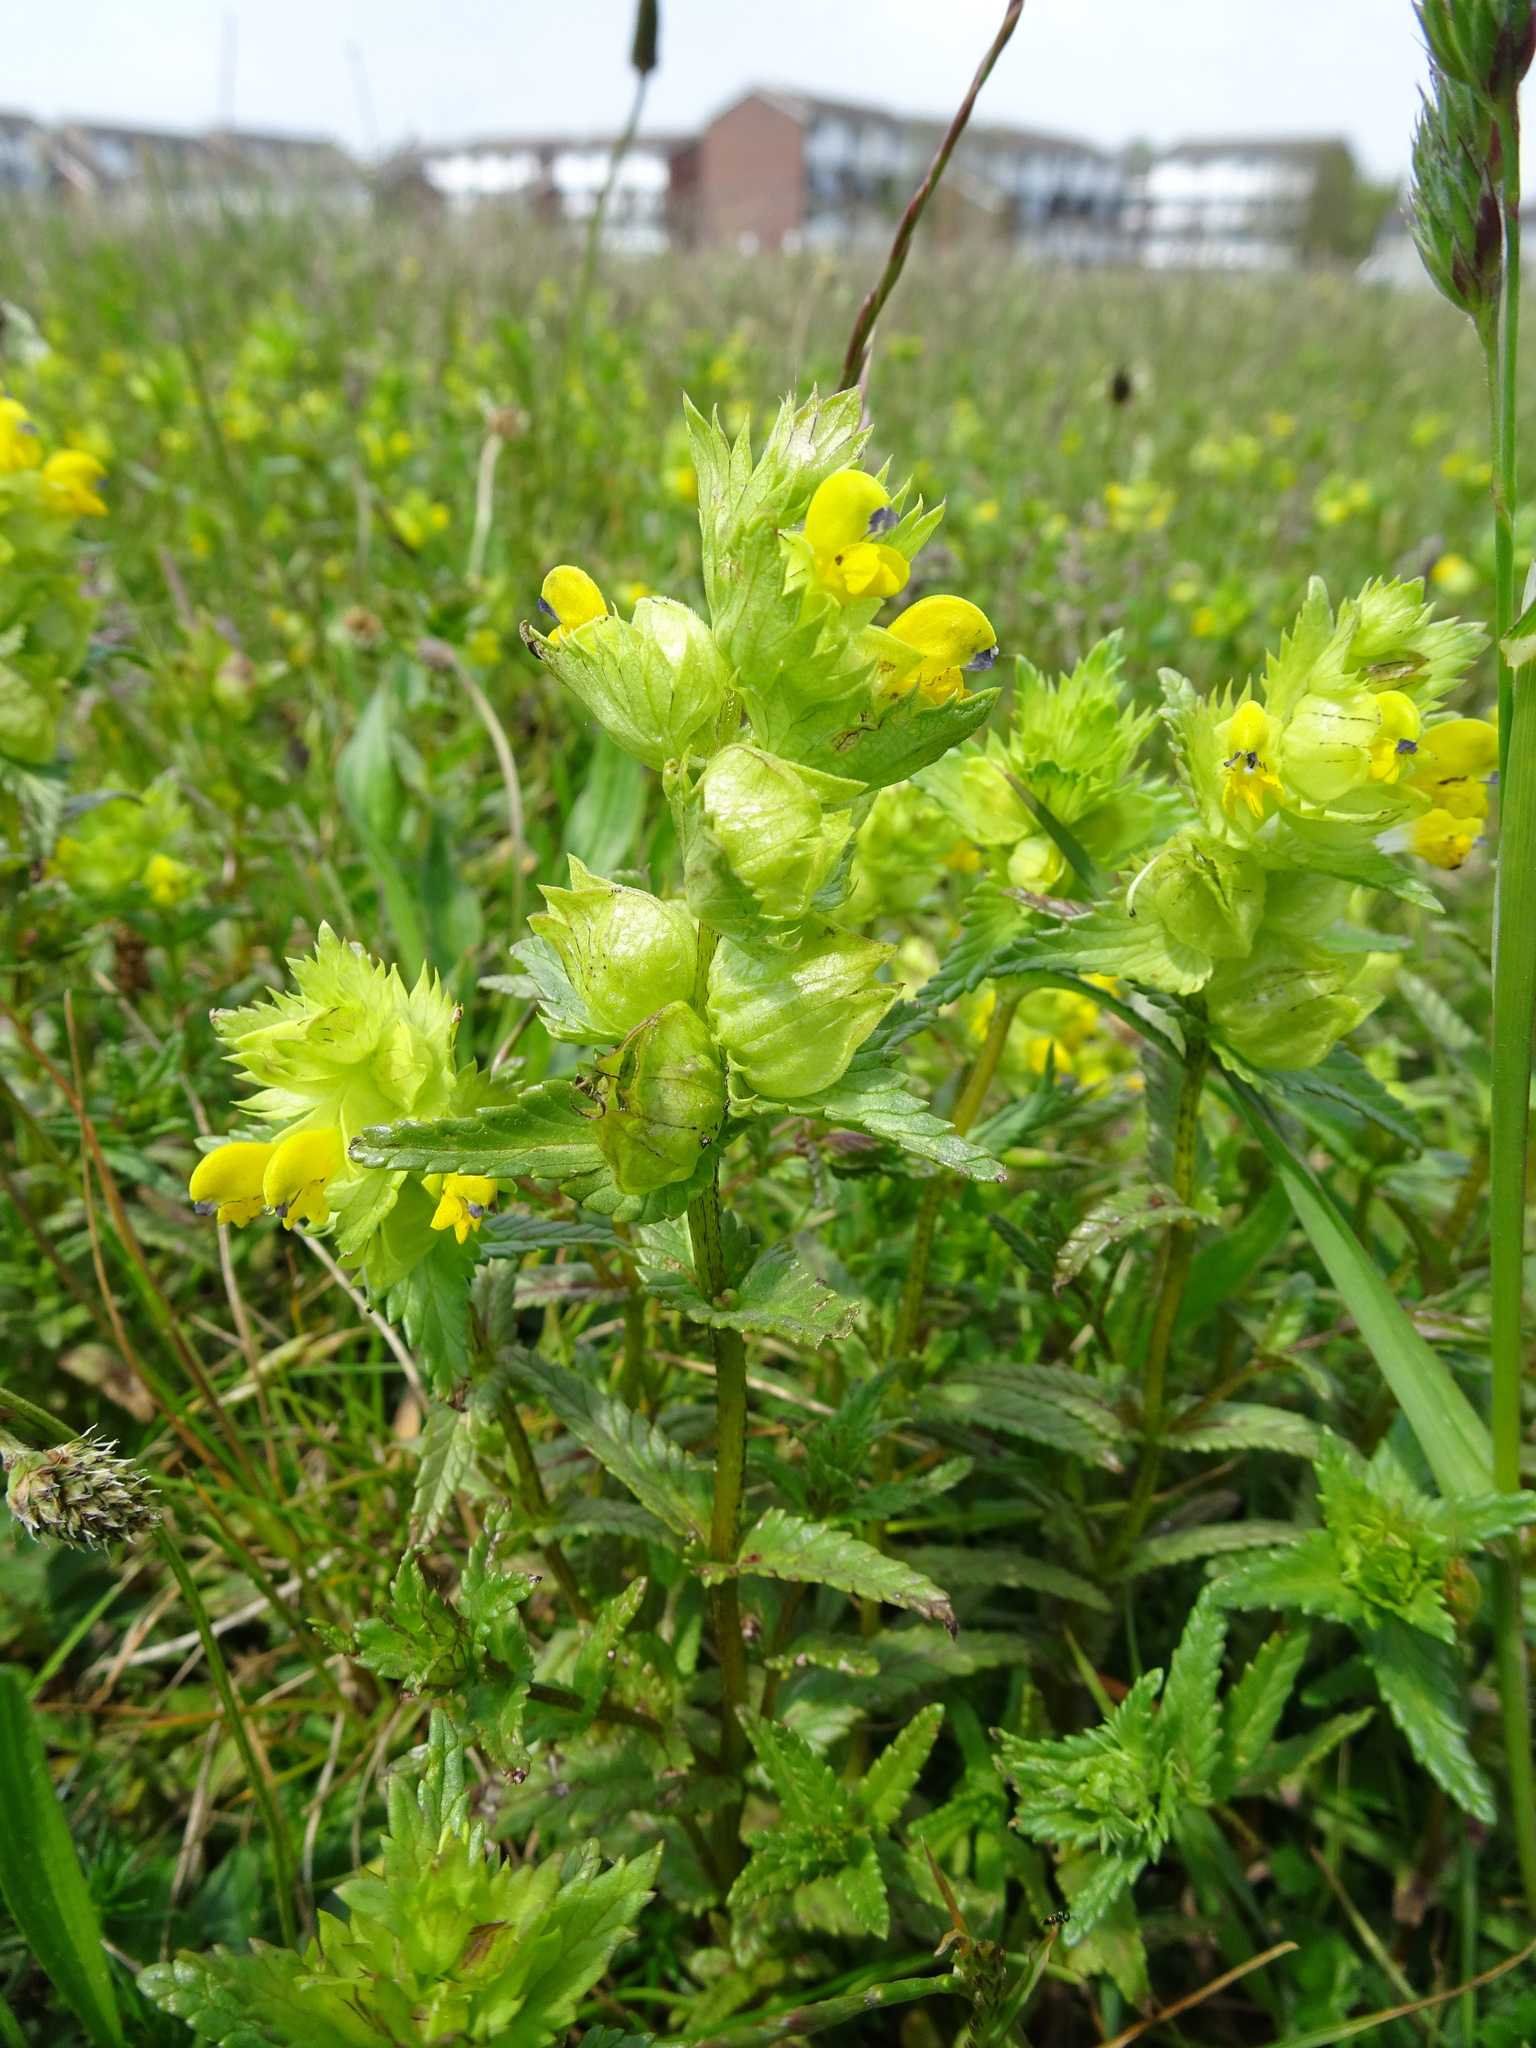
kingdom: Plantae
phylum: Tracheophyta
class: Magnoliopsida
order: Lamiales
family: Orobanchaceae
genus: Rhinanthus
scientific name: Rhinanthus minor
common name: Yellow-rattle
